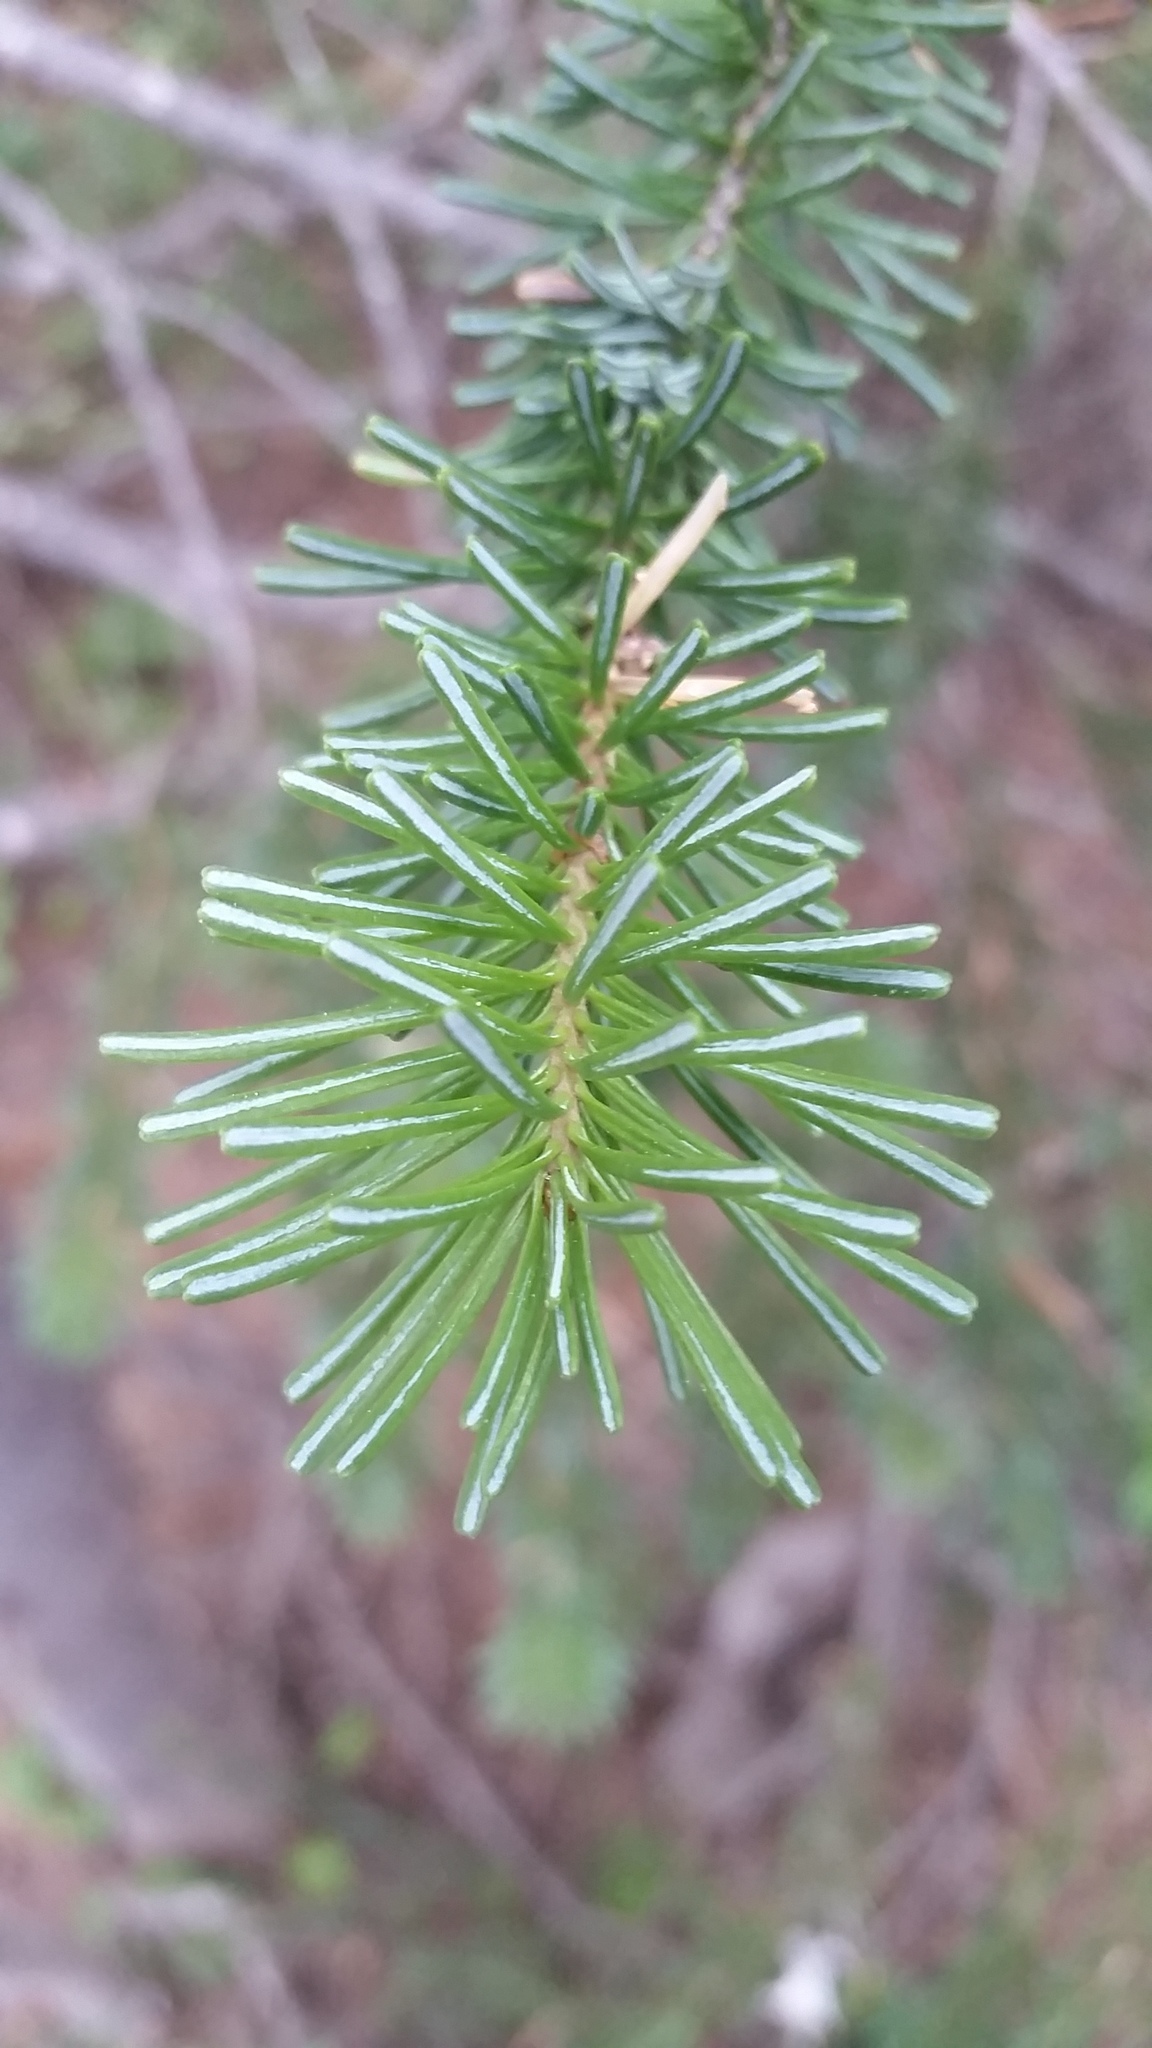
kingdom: Plantae
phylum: Tracheophyta
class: Pinopsida
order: Pinales
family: Pinaceae
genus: Abies
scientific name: Abies lasiocarpa
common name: Subalpine fir
